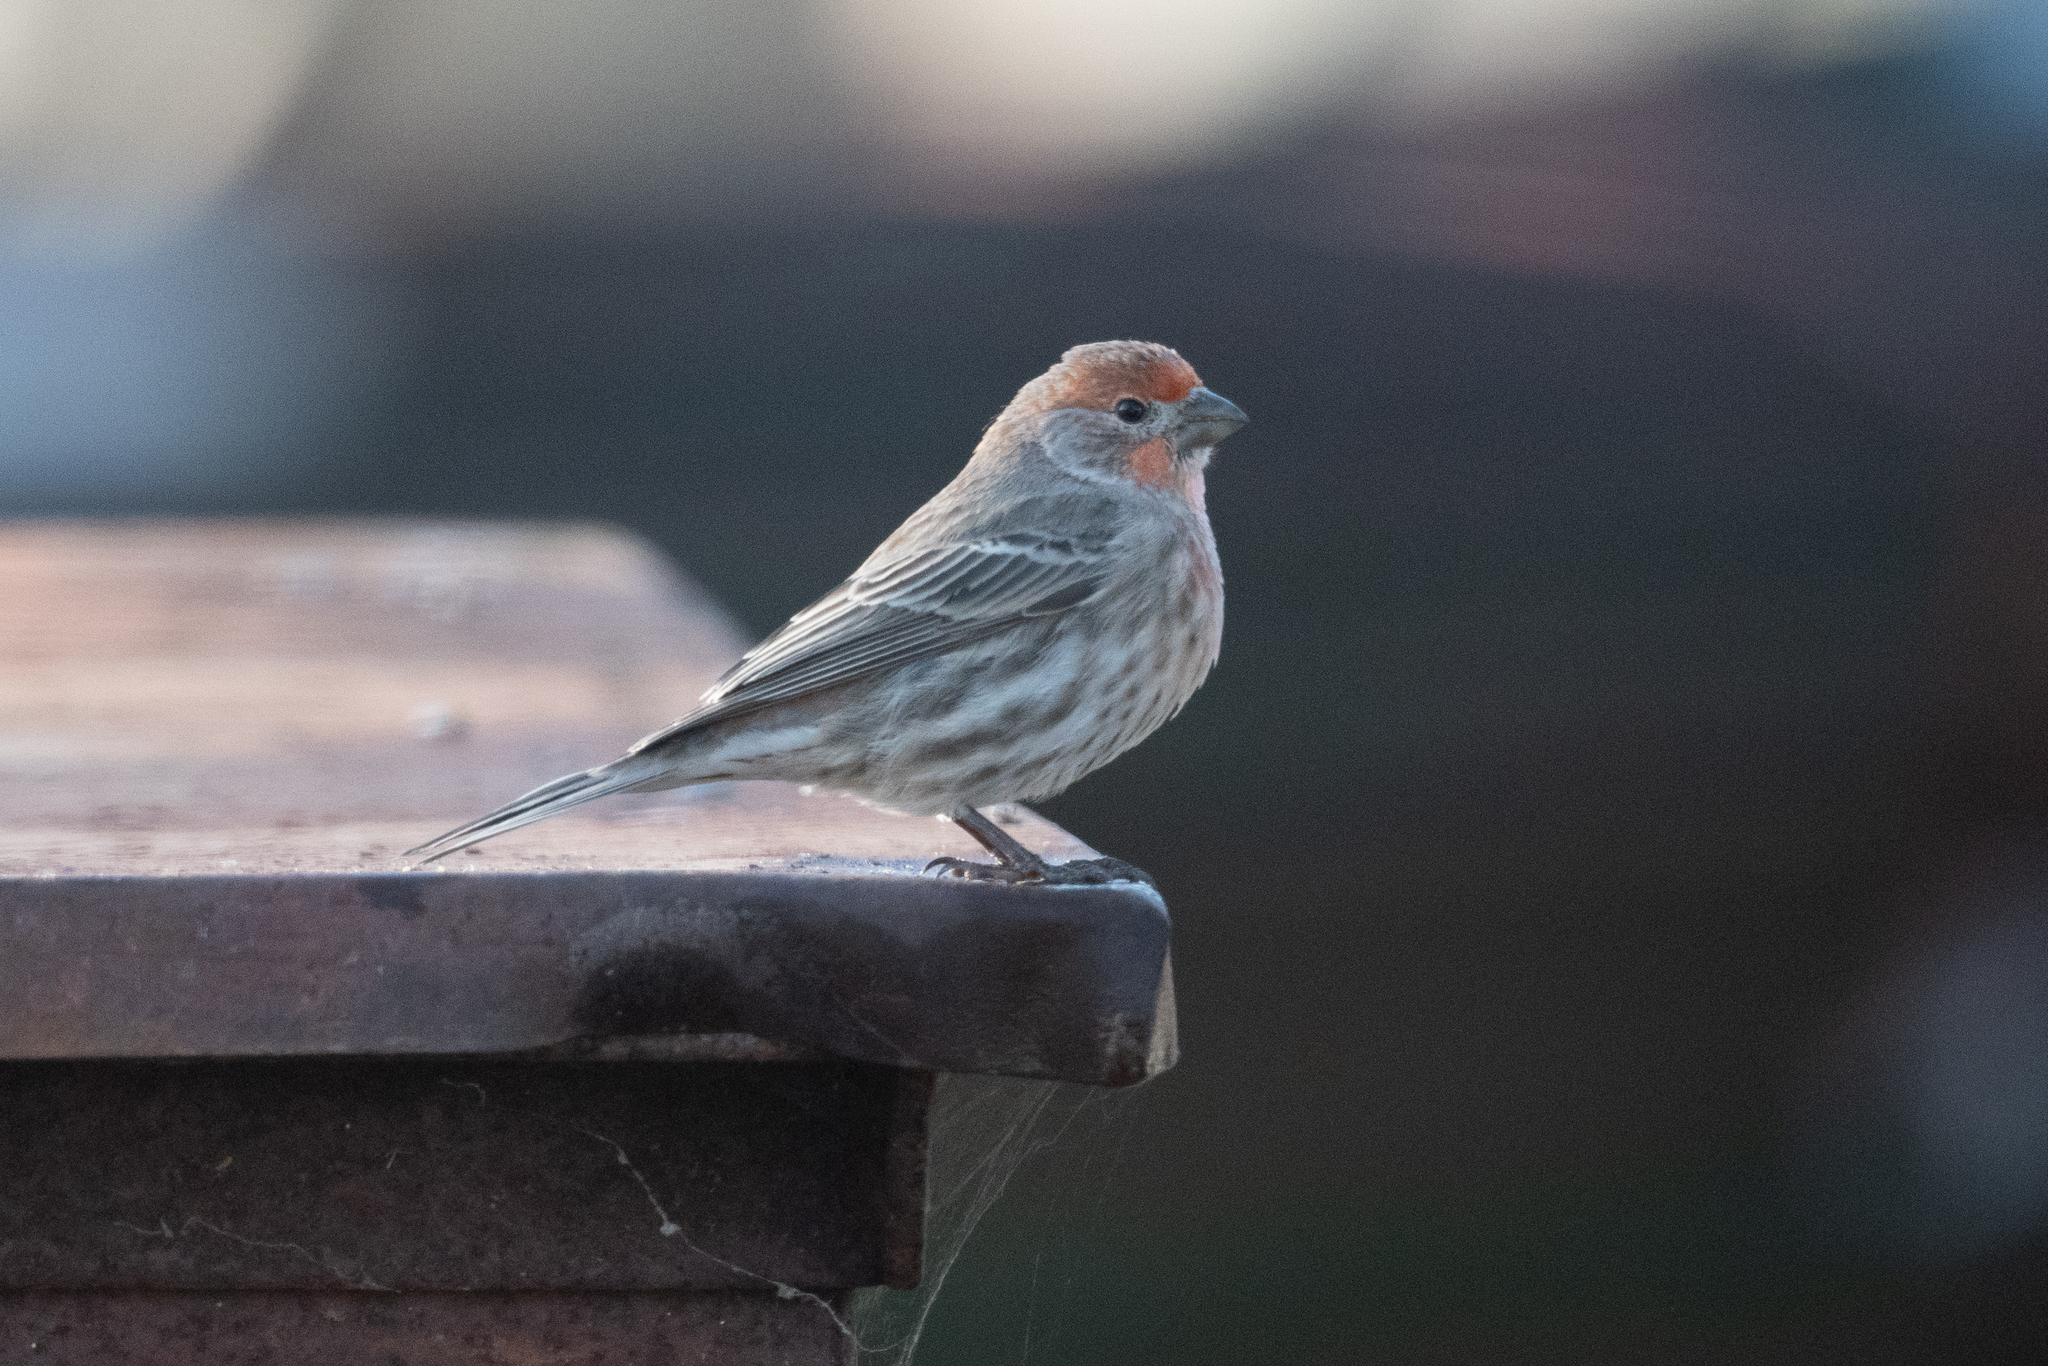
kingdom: Animalia
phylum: Chordata
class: Aves
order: Passeriformes
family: Fringillidae
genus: Haemorhous
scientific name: Haemorhous mexicanus
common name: House finch
